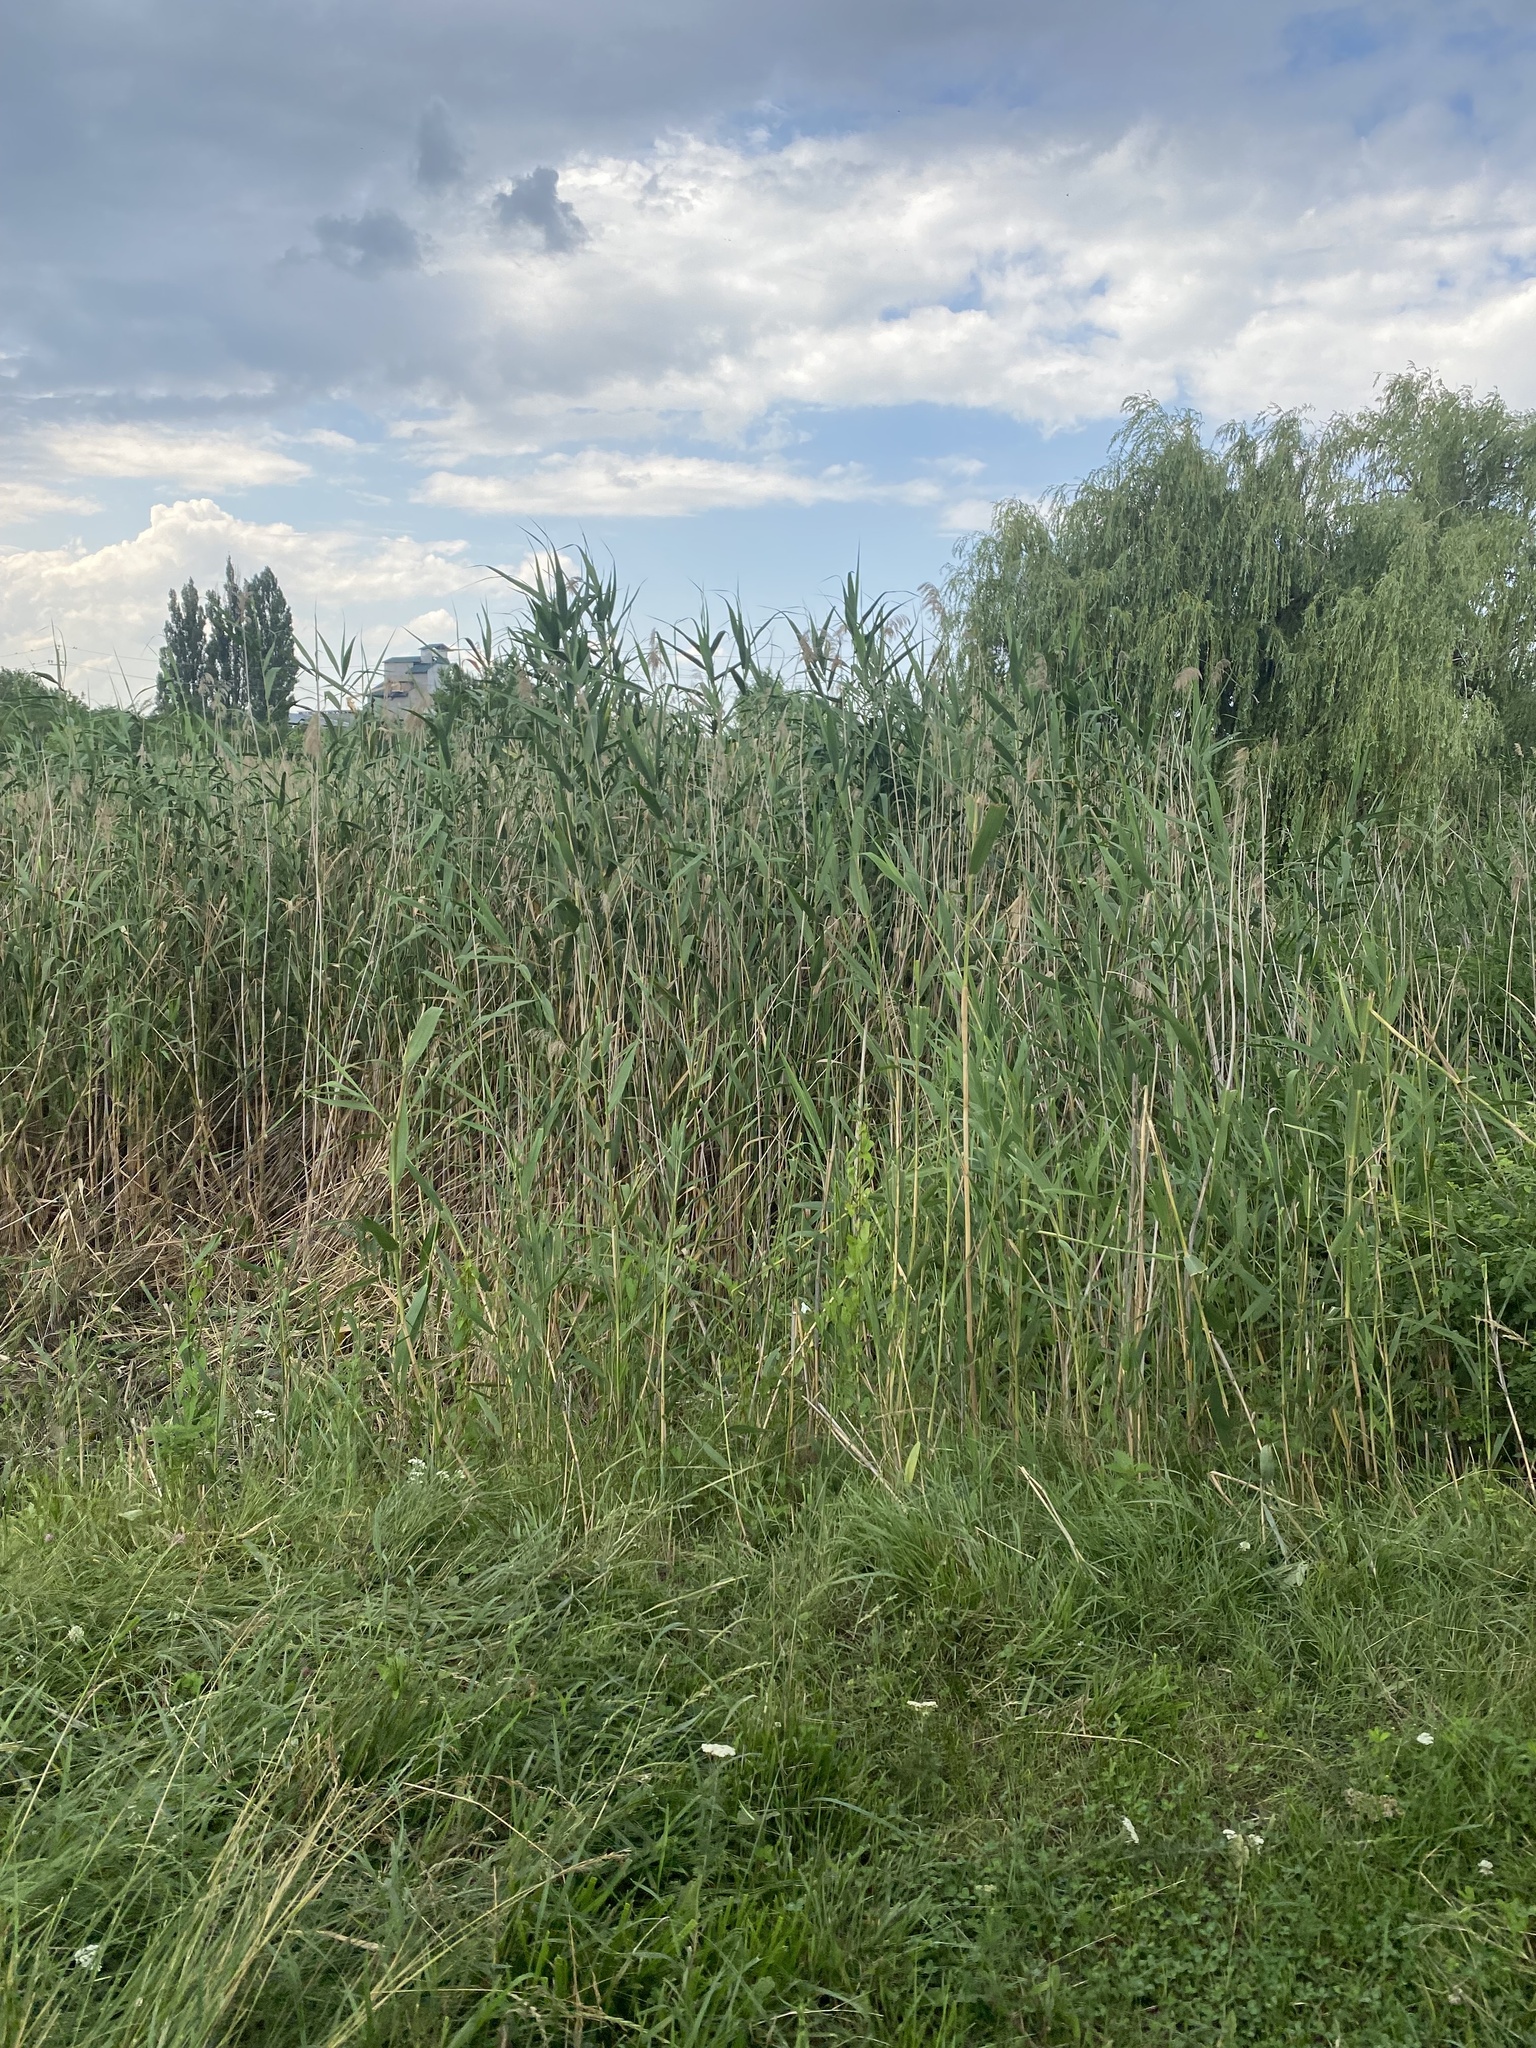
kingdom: Plantae
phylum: Tracheophyta
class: Liliopsida
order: Poales
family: Poaceae
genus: Phragmites
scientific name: Phragmites australis
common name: Common reed
